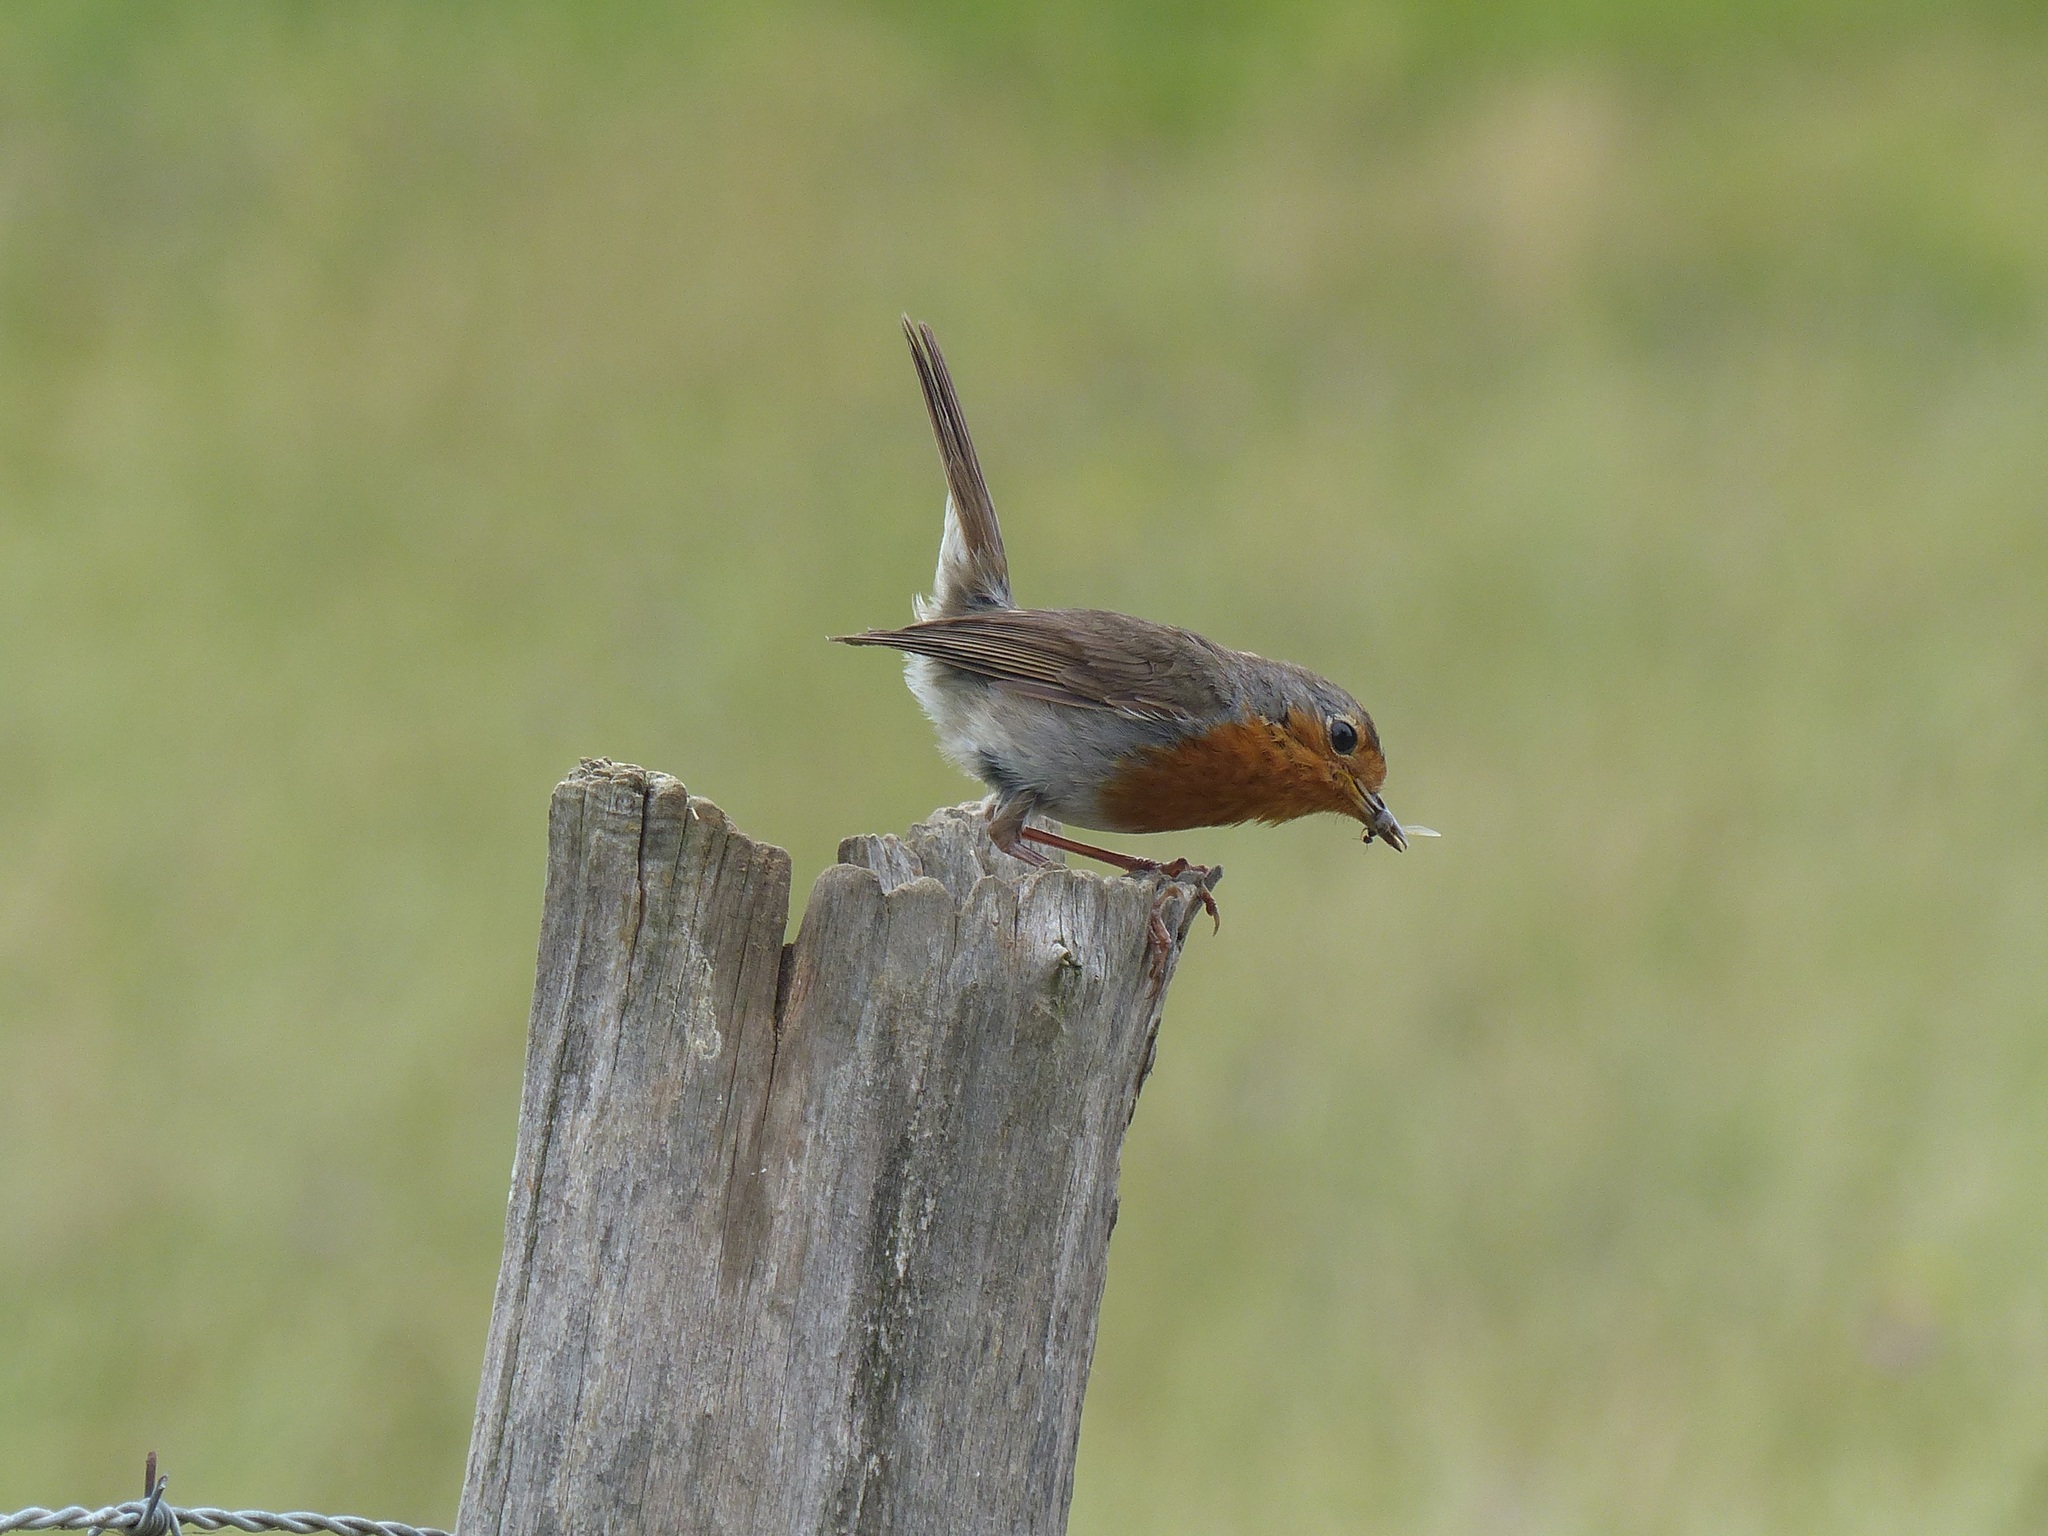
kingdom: Animalia
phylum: Chordata
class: Aves
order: Passeriformes
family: Muscicapidae
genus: Erithacus
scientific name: Erithacus rubecula
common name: European robin
